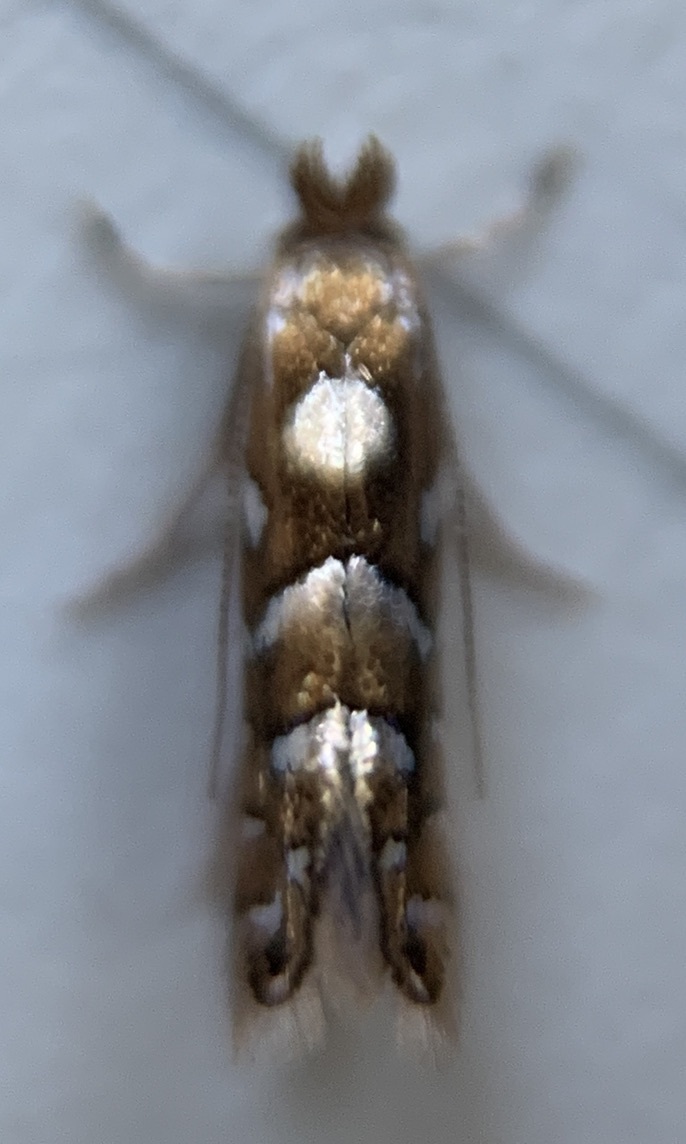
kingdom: Animalia
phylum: Arthropoda
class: Insecta
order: Lepidoptera
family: Gracillariidae
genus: Phyllonorycter
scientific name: Phyllonorycter auronitens
